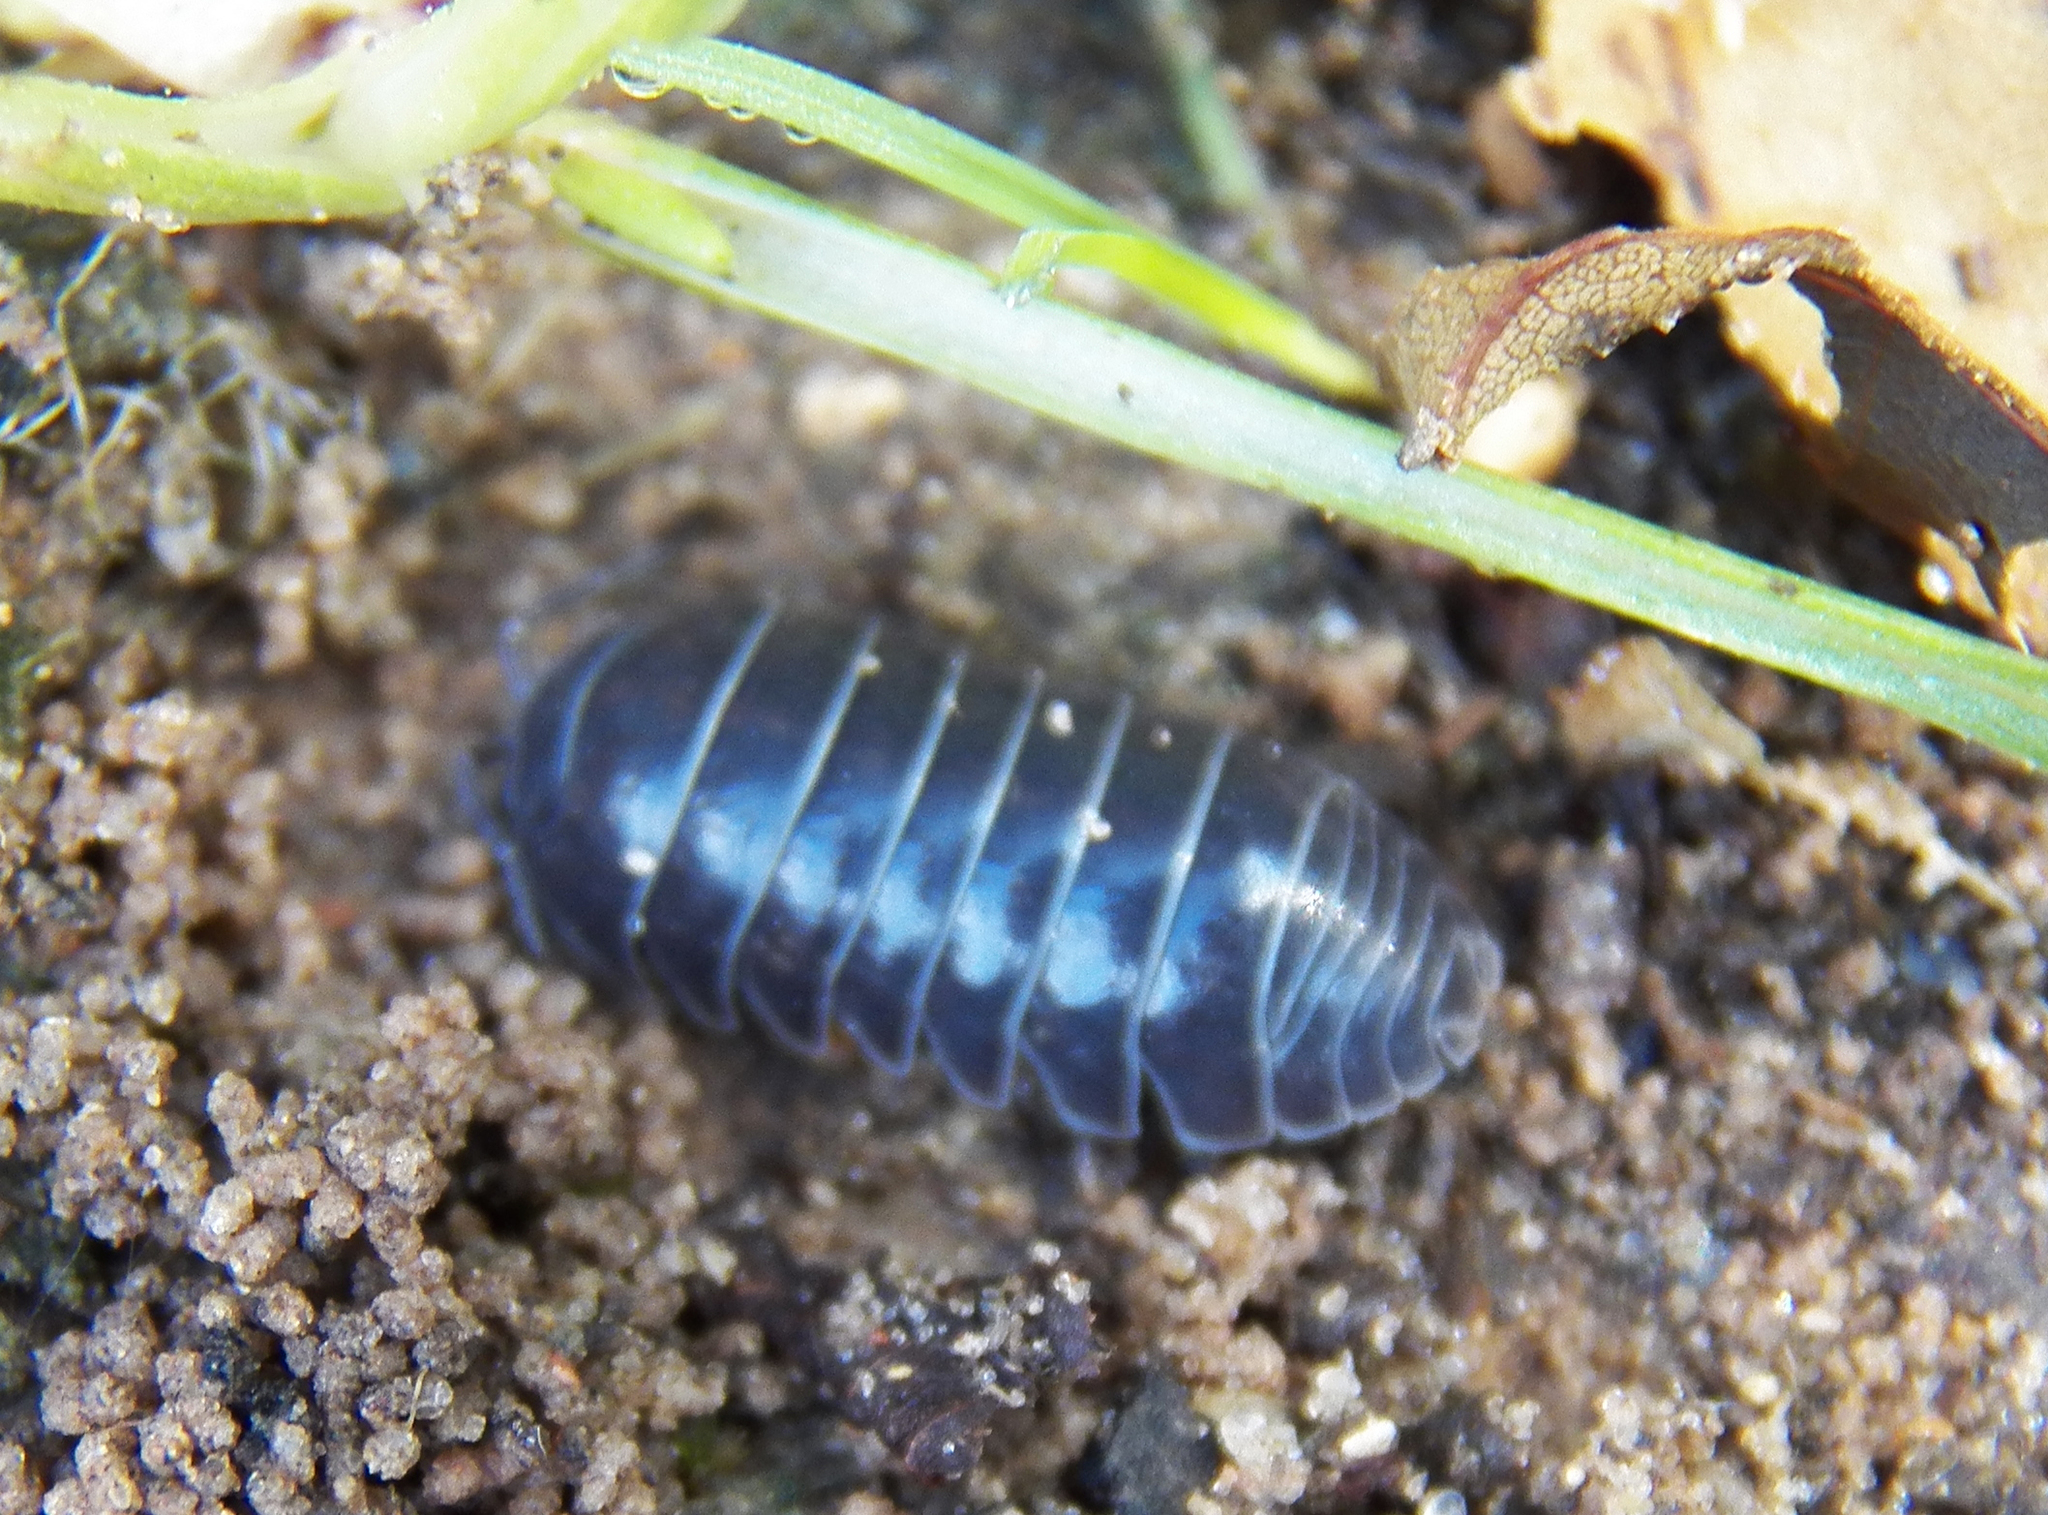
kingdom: Animalia
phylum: Arthropoda
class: Malacostraca
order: Isopoda
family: Armadillidiidae
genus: Armadillidium
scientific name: Armadillidium vulgare
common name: Common pill woodlouse
